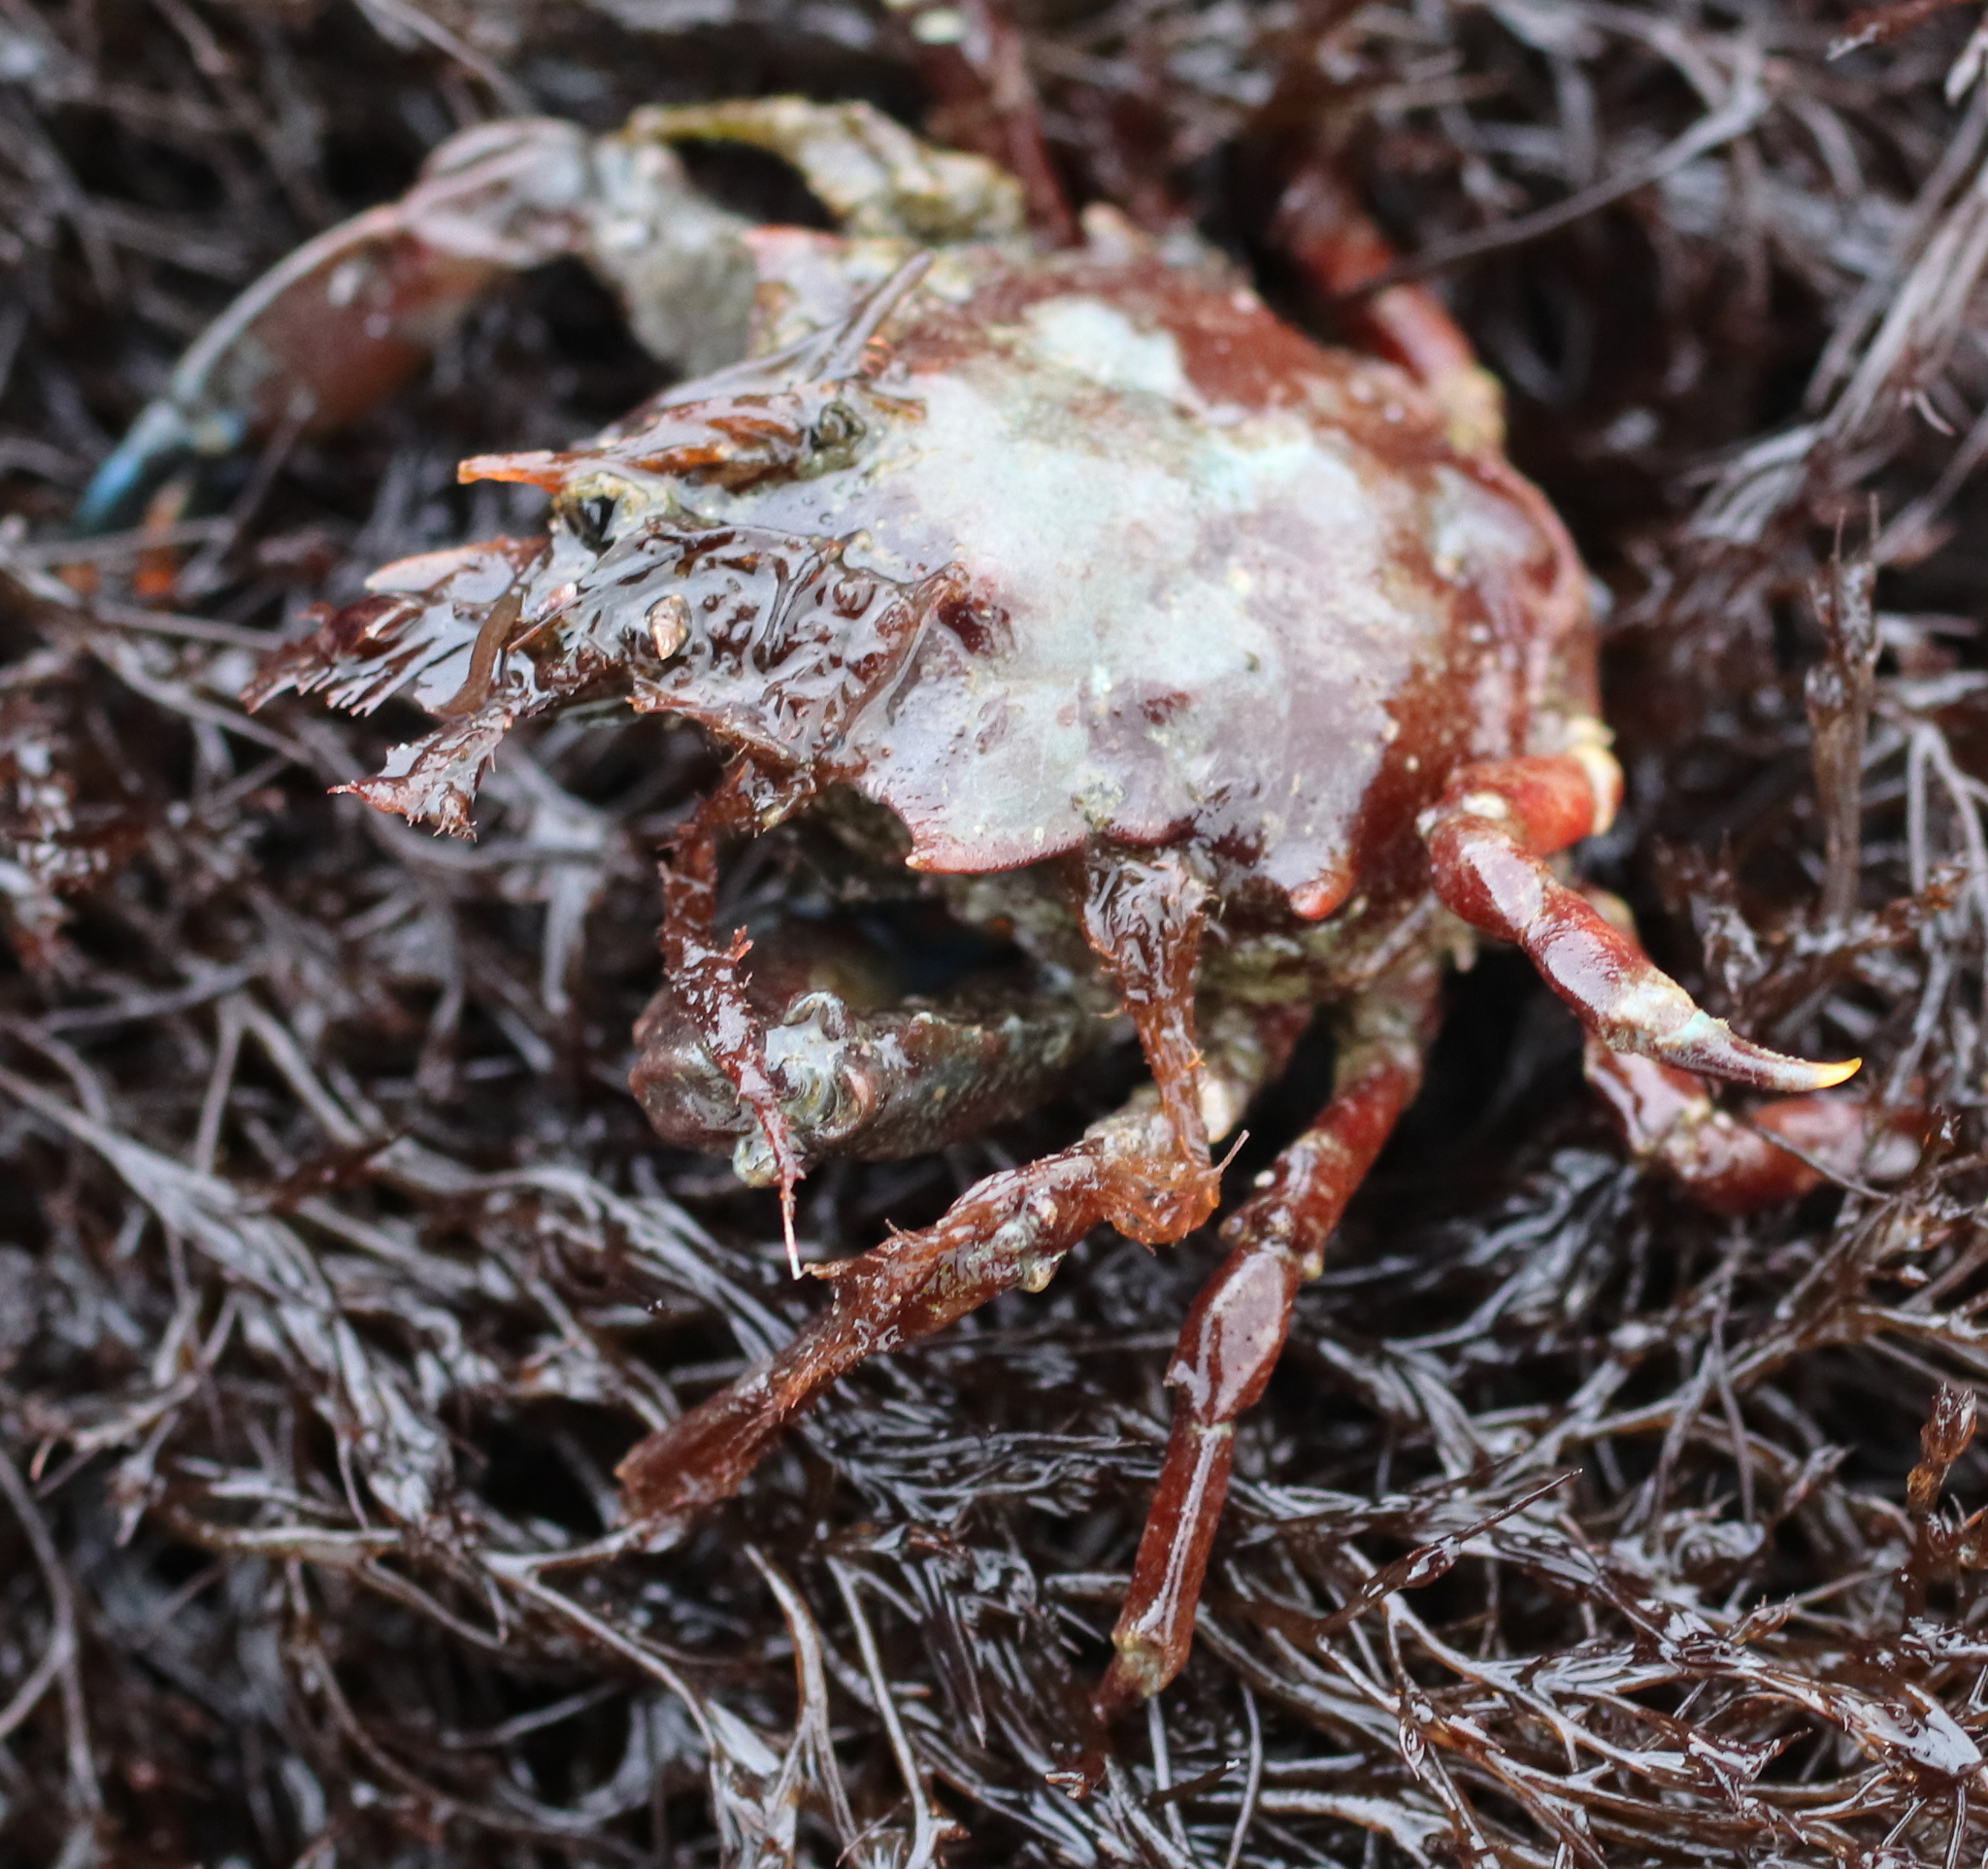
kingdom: Animalia
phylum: Arthropoda
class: Malacostraca
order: Decapoda
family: Epialtidae
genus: Pugettia
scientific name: Pugettia gracilis
